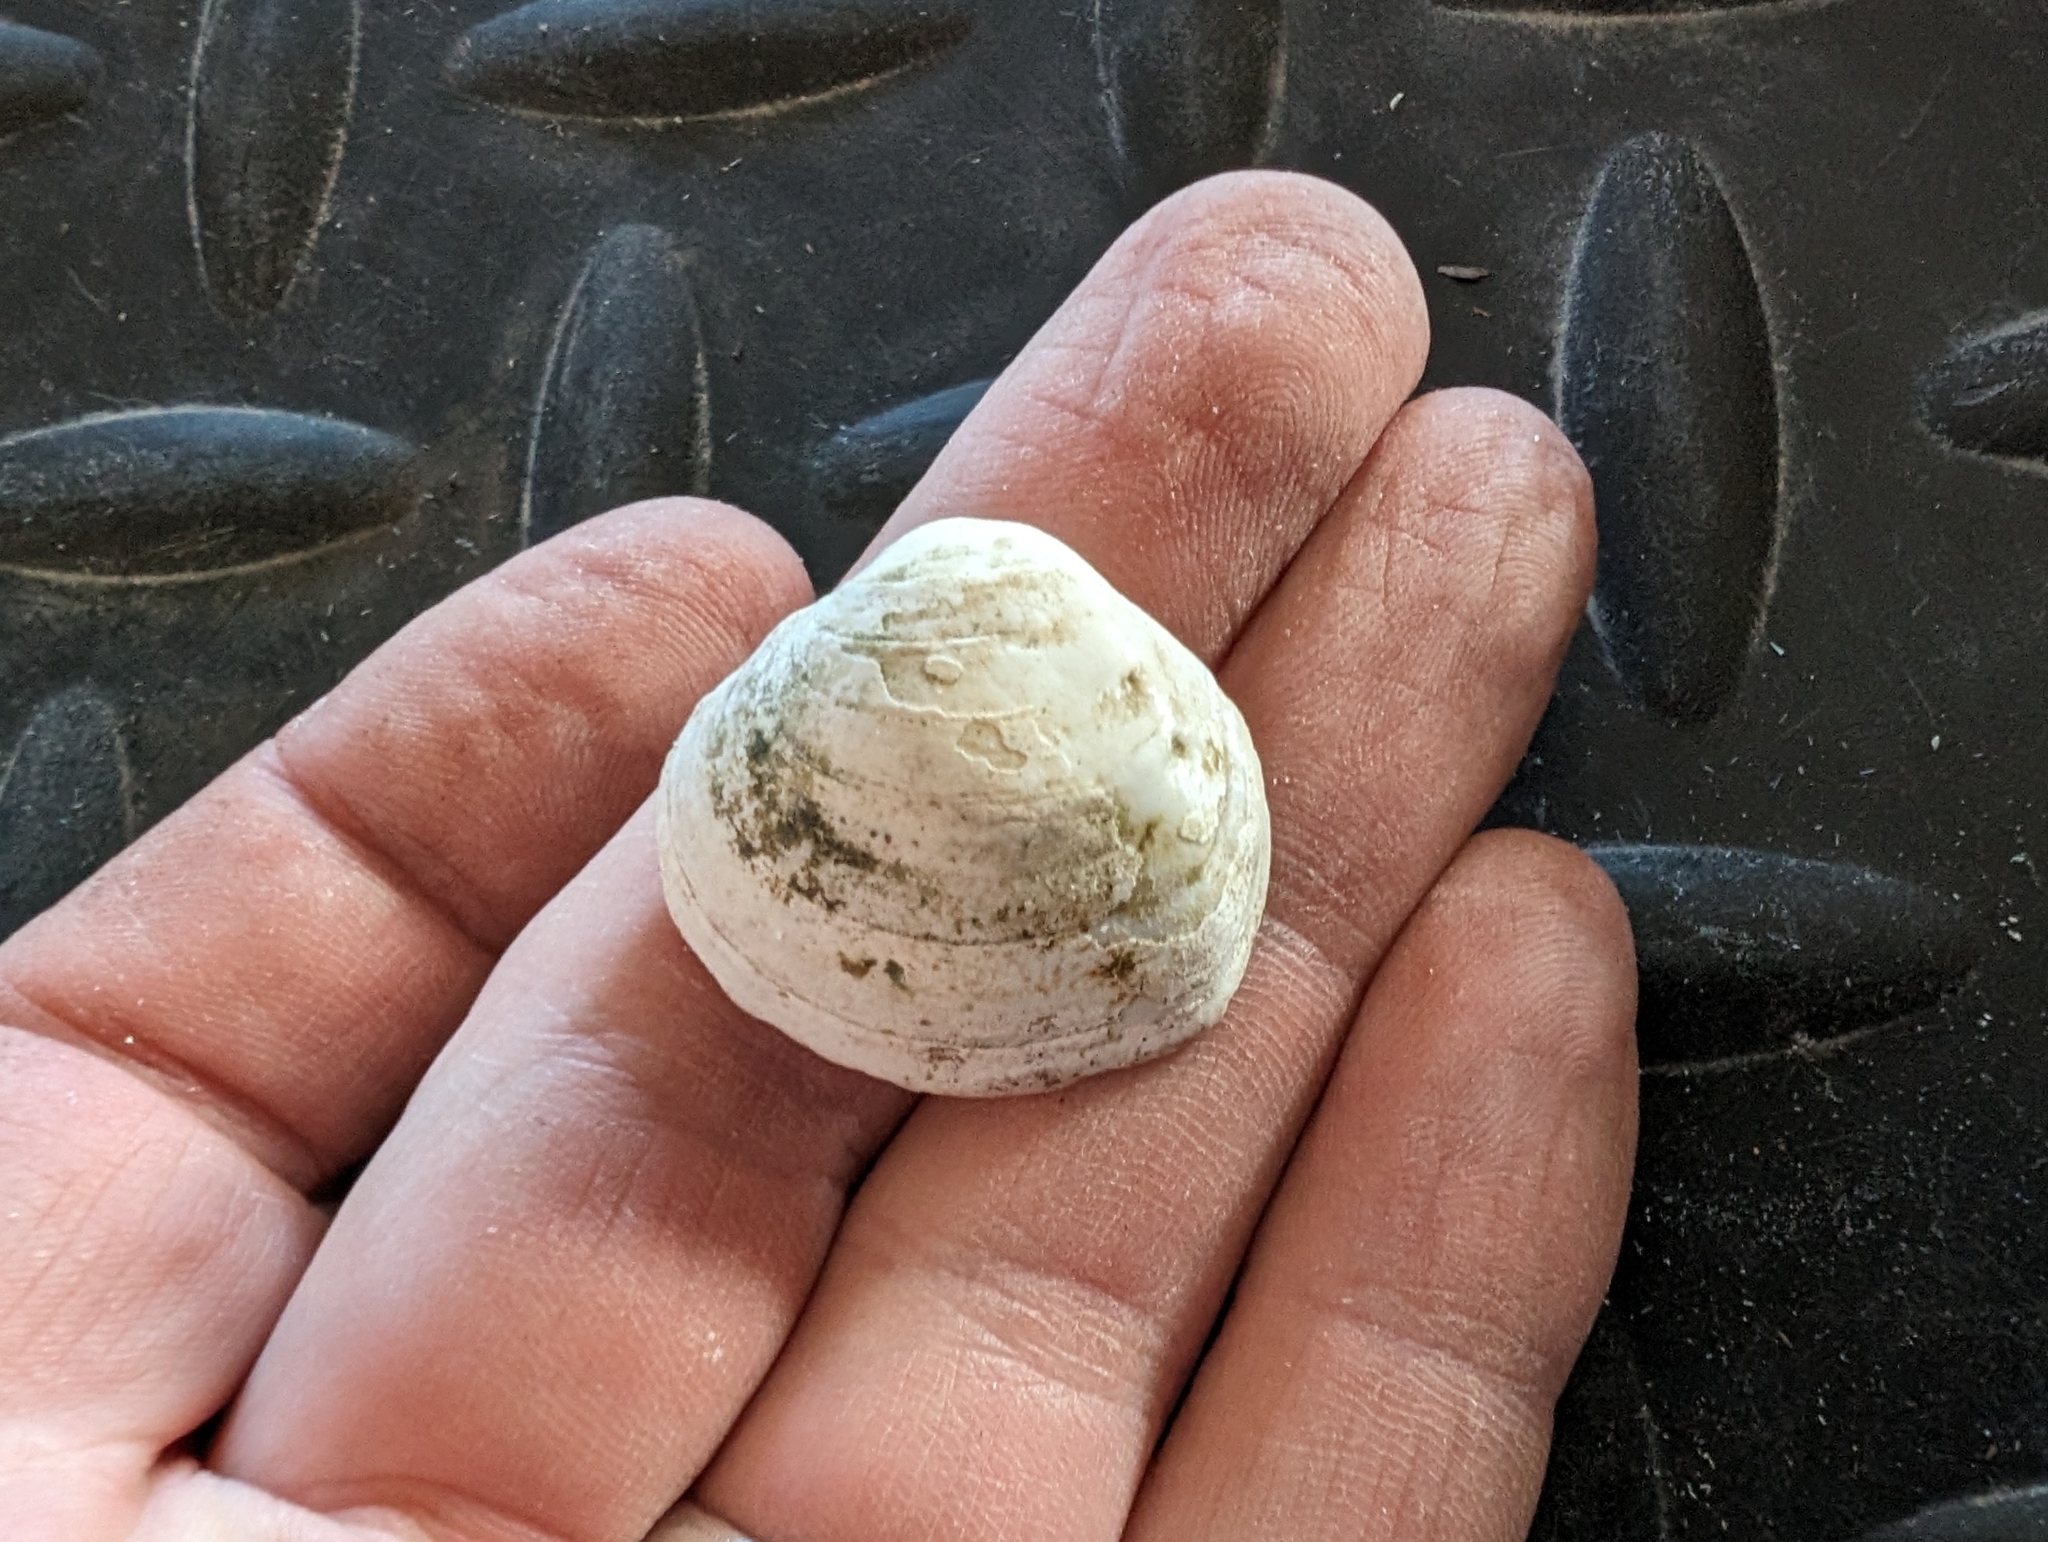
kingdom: Animalia
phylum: Mollusca
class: Bivalvia
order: Unionida
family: Unionidae
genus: Cyclonaias
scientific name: Cyclonaias pustulosa
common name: Pimpleback
